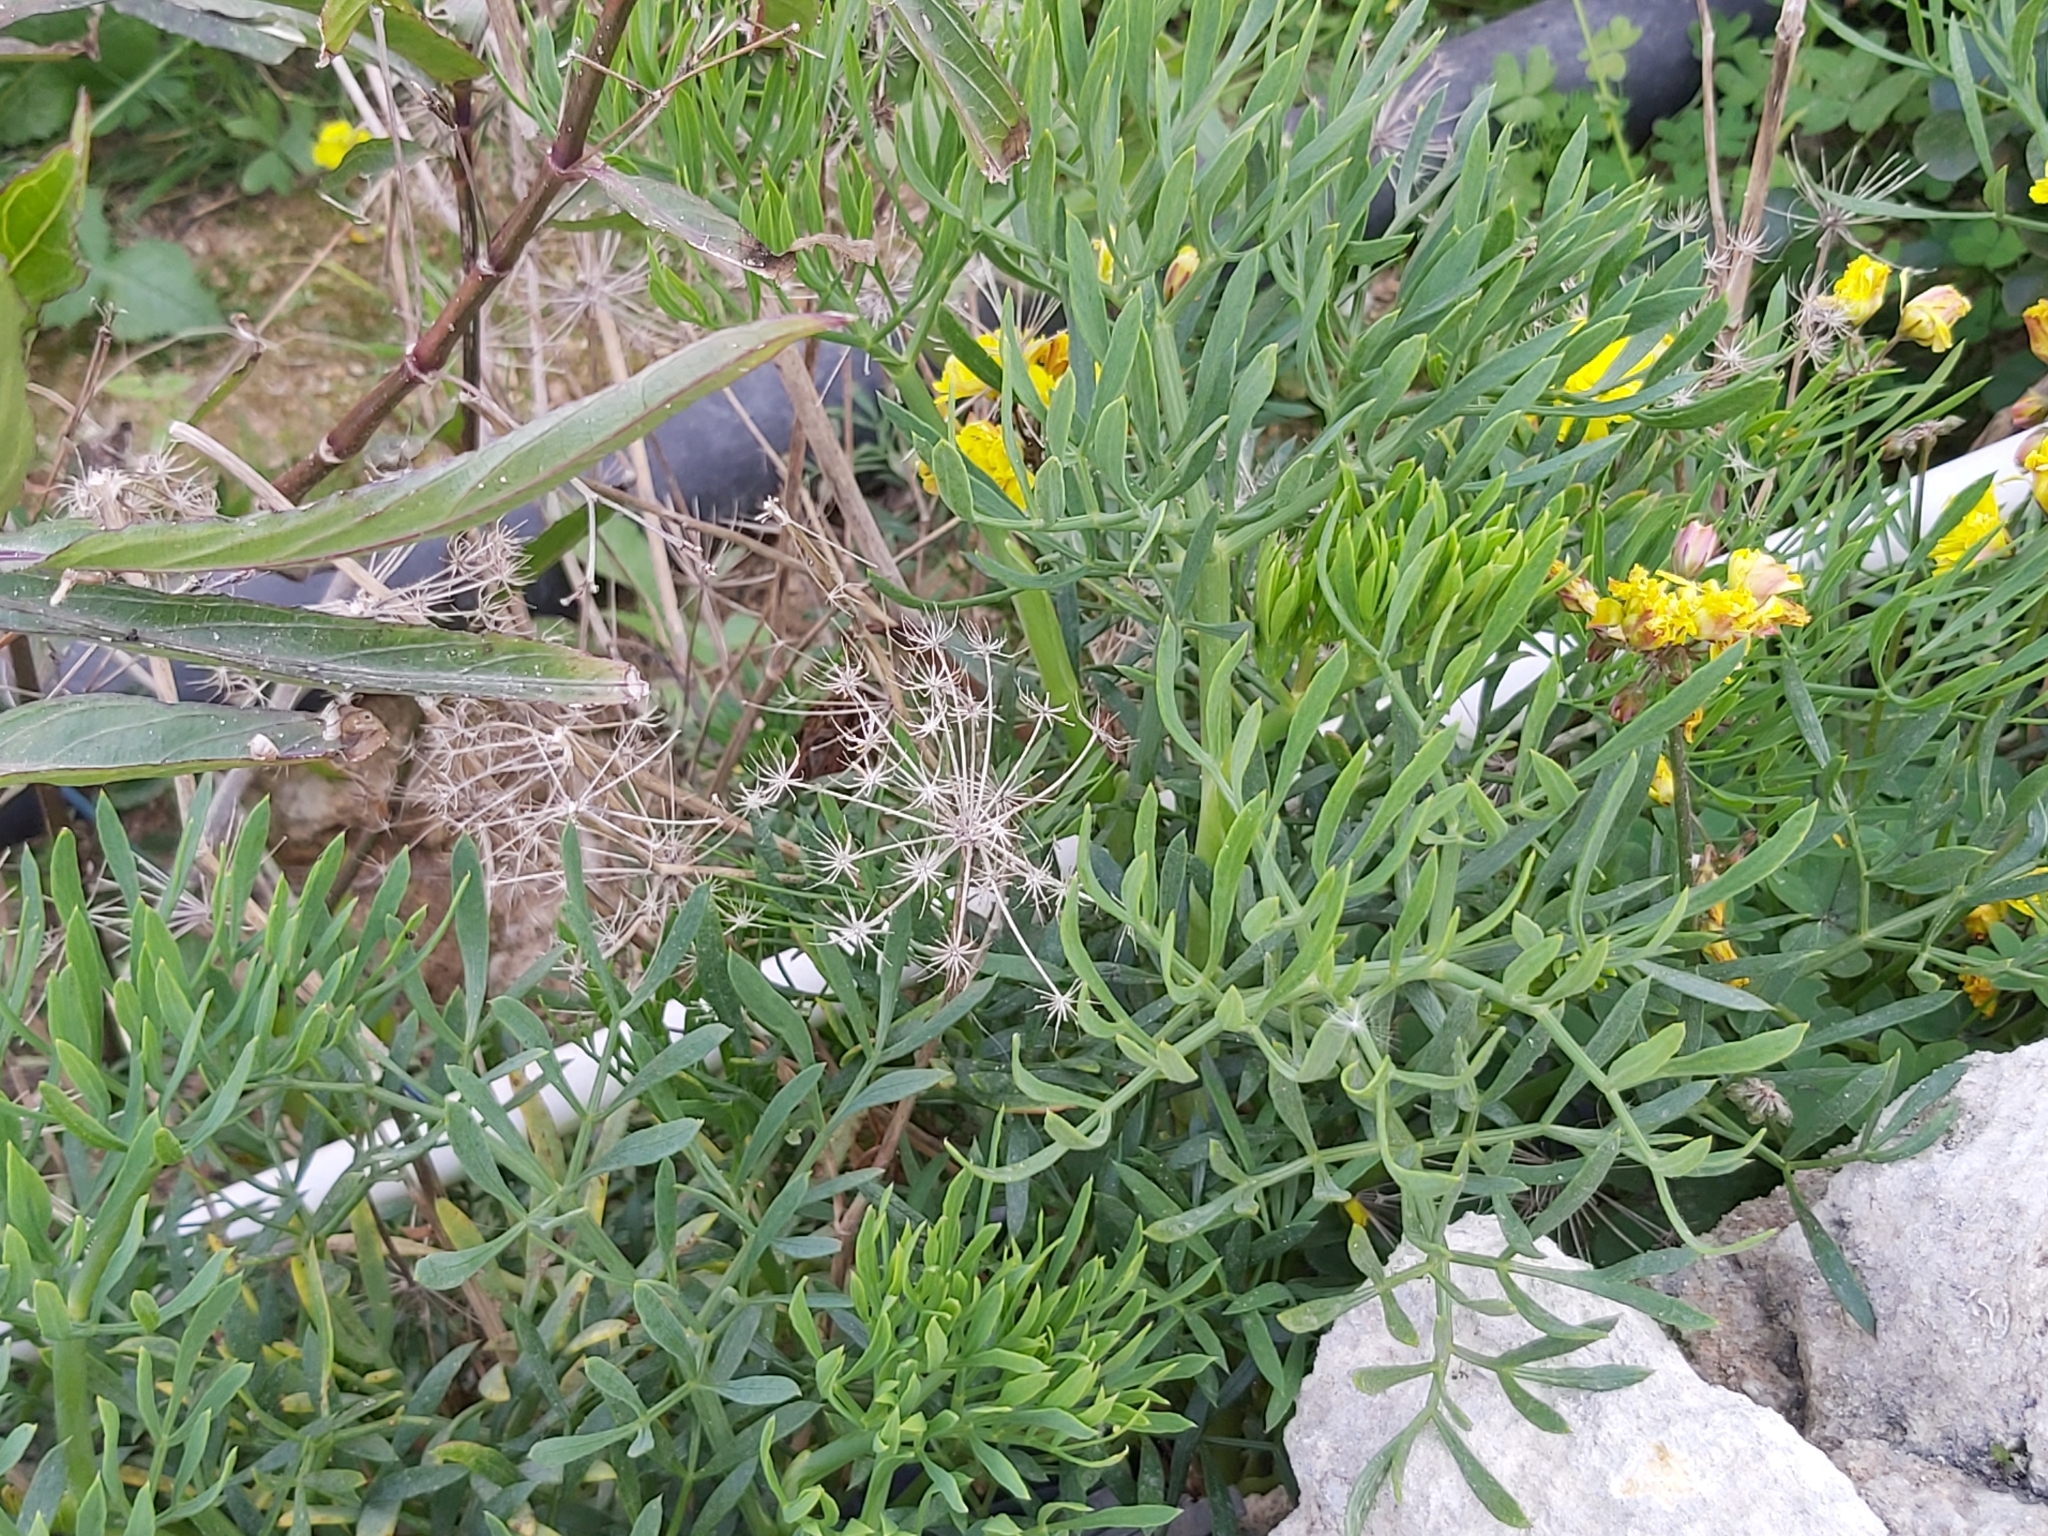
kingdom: Plantae
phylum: Tracheophyta
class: Magnoliopsida
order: Apiales
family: Apiaceae
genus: Crithmum
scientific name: Crithmum maritimum
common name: Rock samphire
